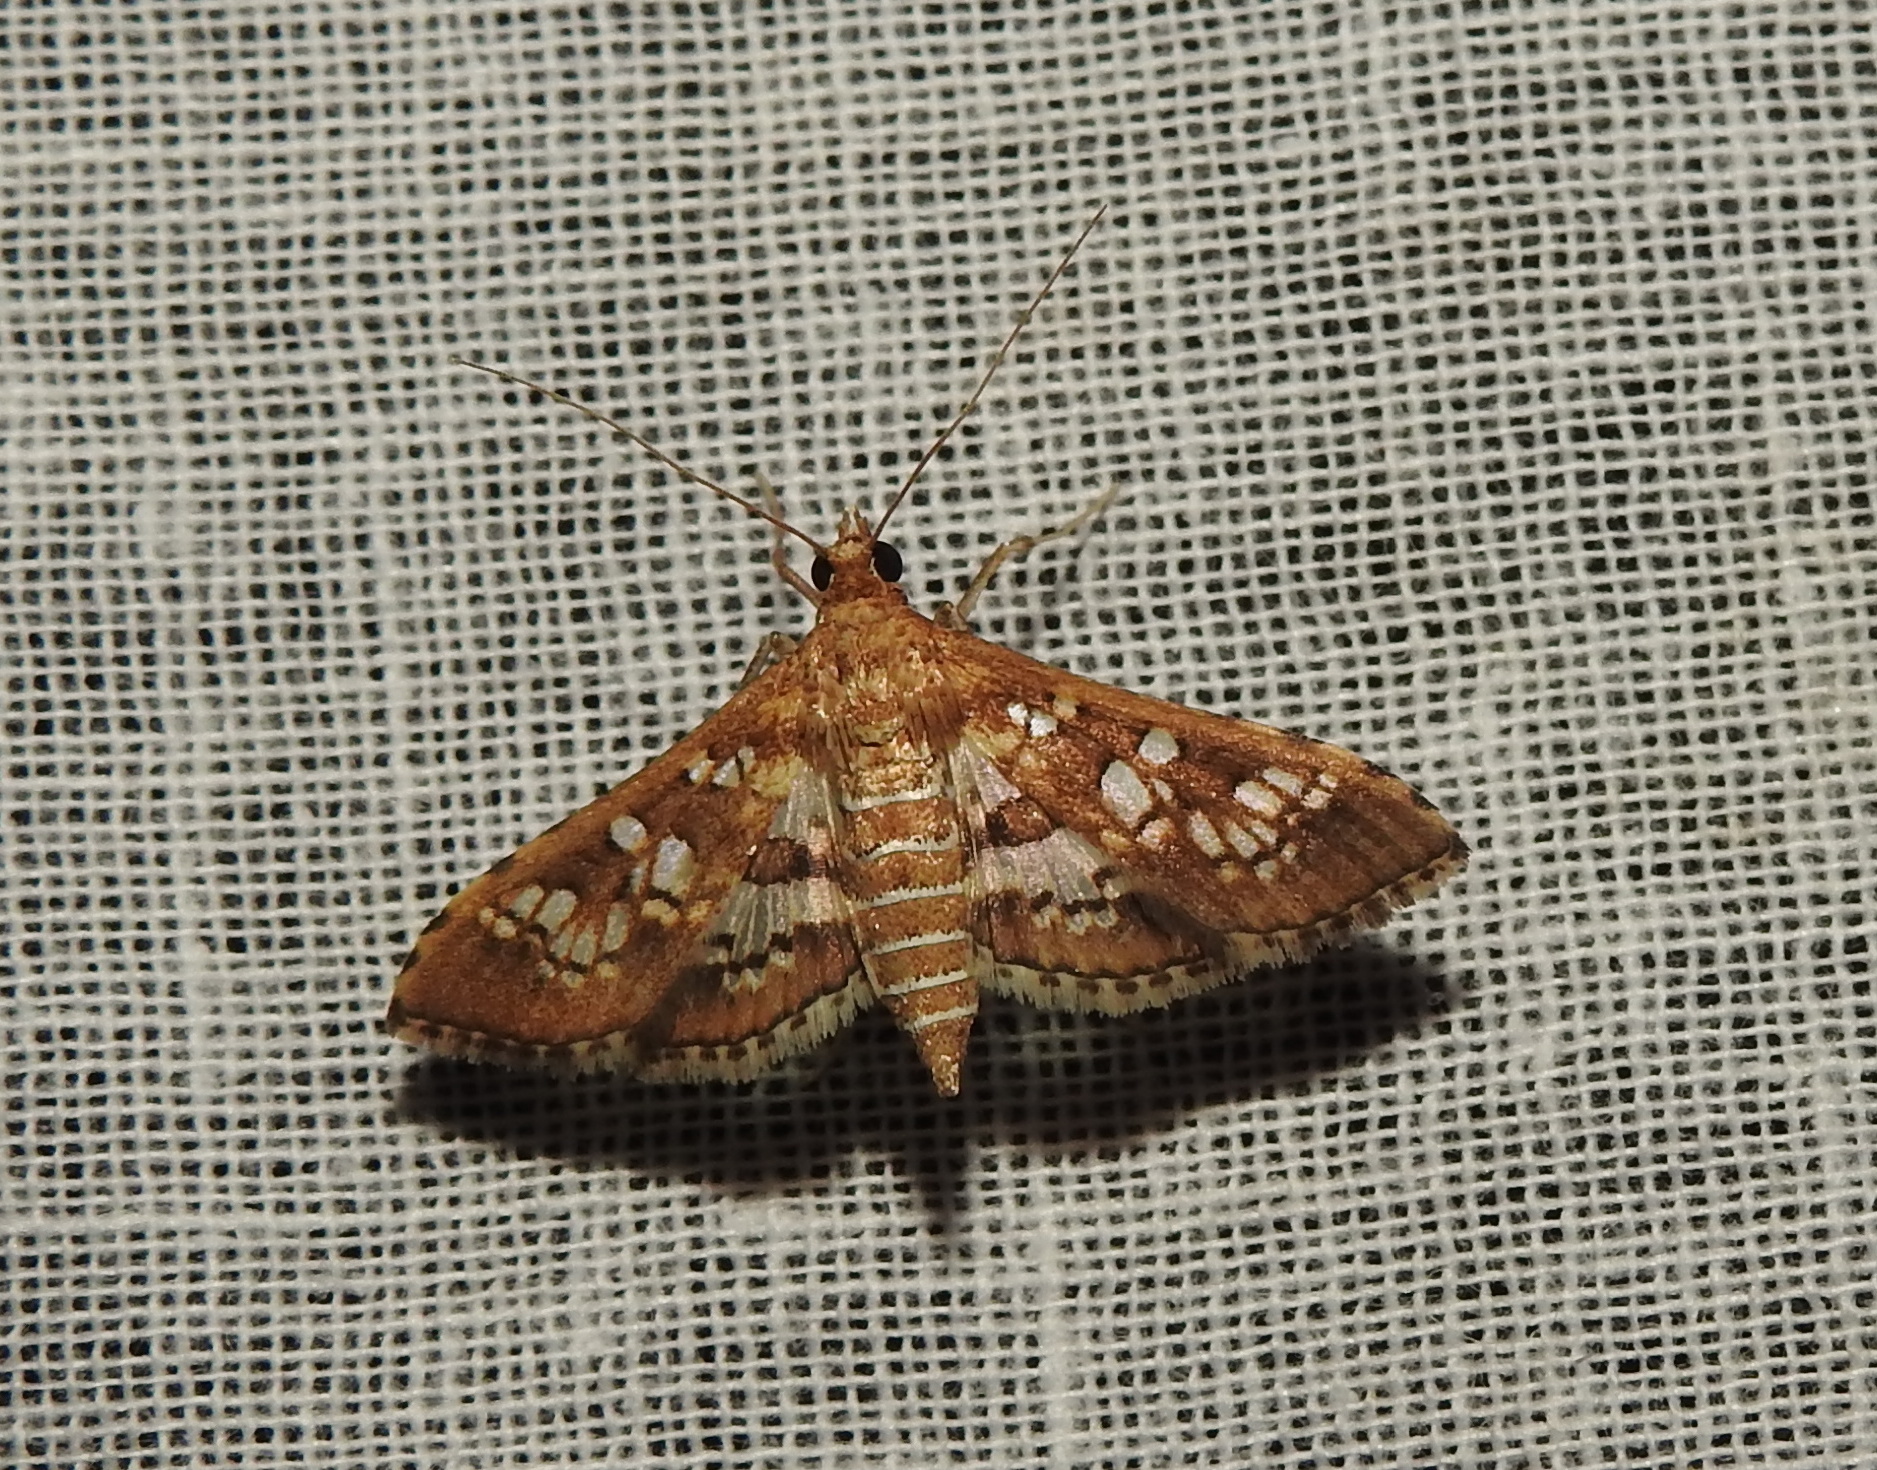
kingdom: Animalia
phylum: Arthropoda
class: Insecta
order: Lepidoptera
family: Crambidae
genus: Sameodes
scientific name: Sameodes cancellalis
